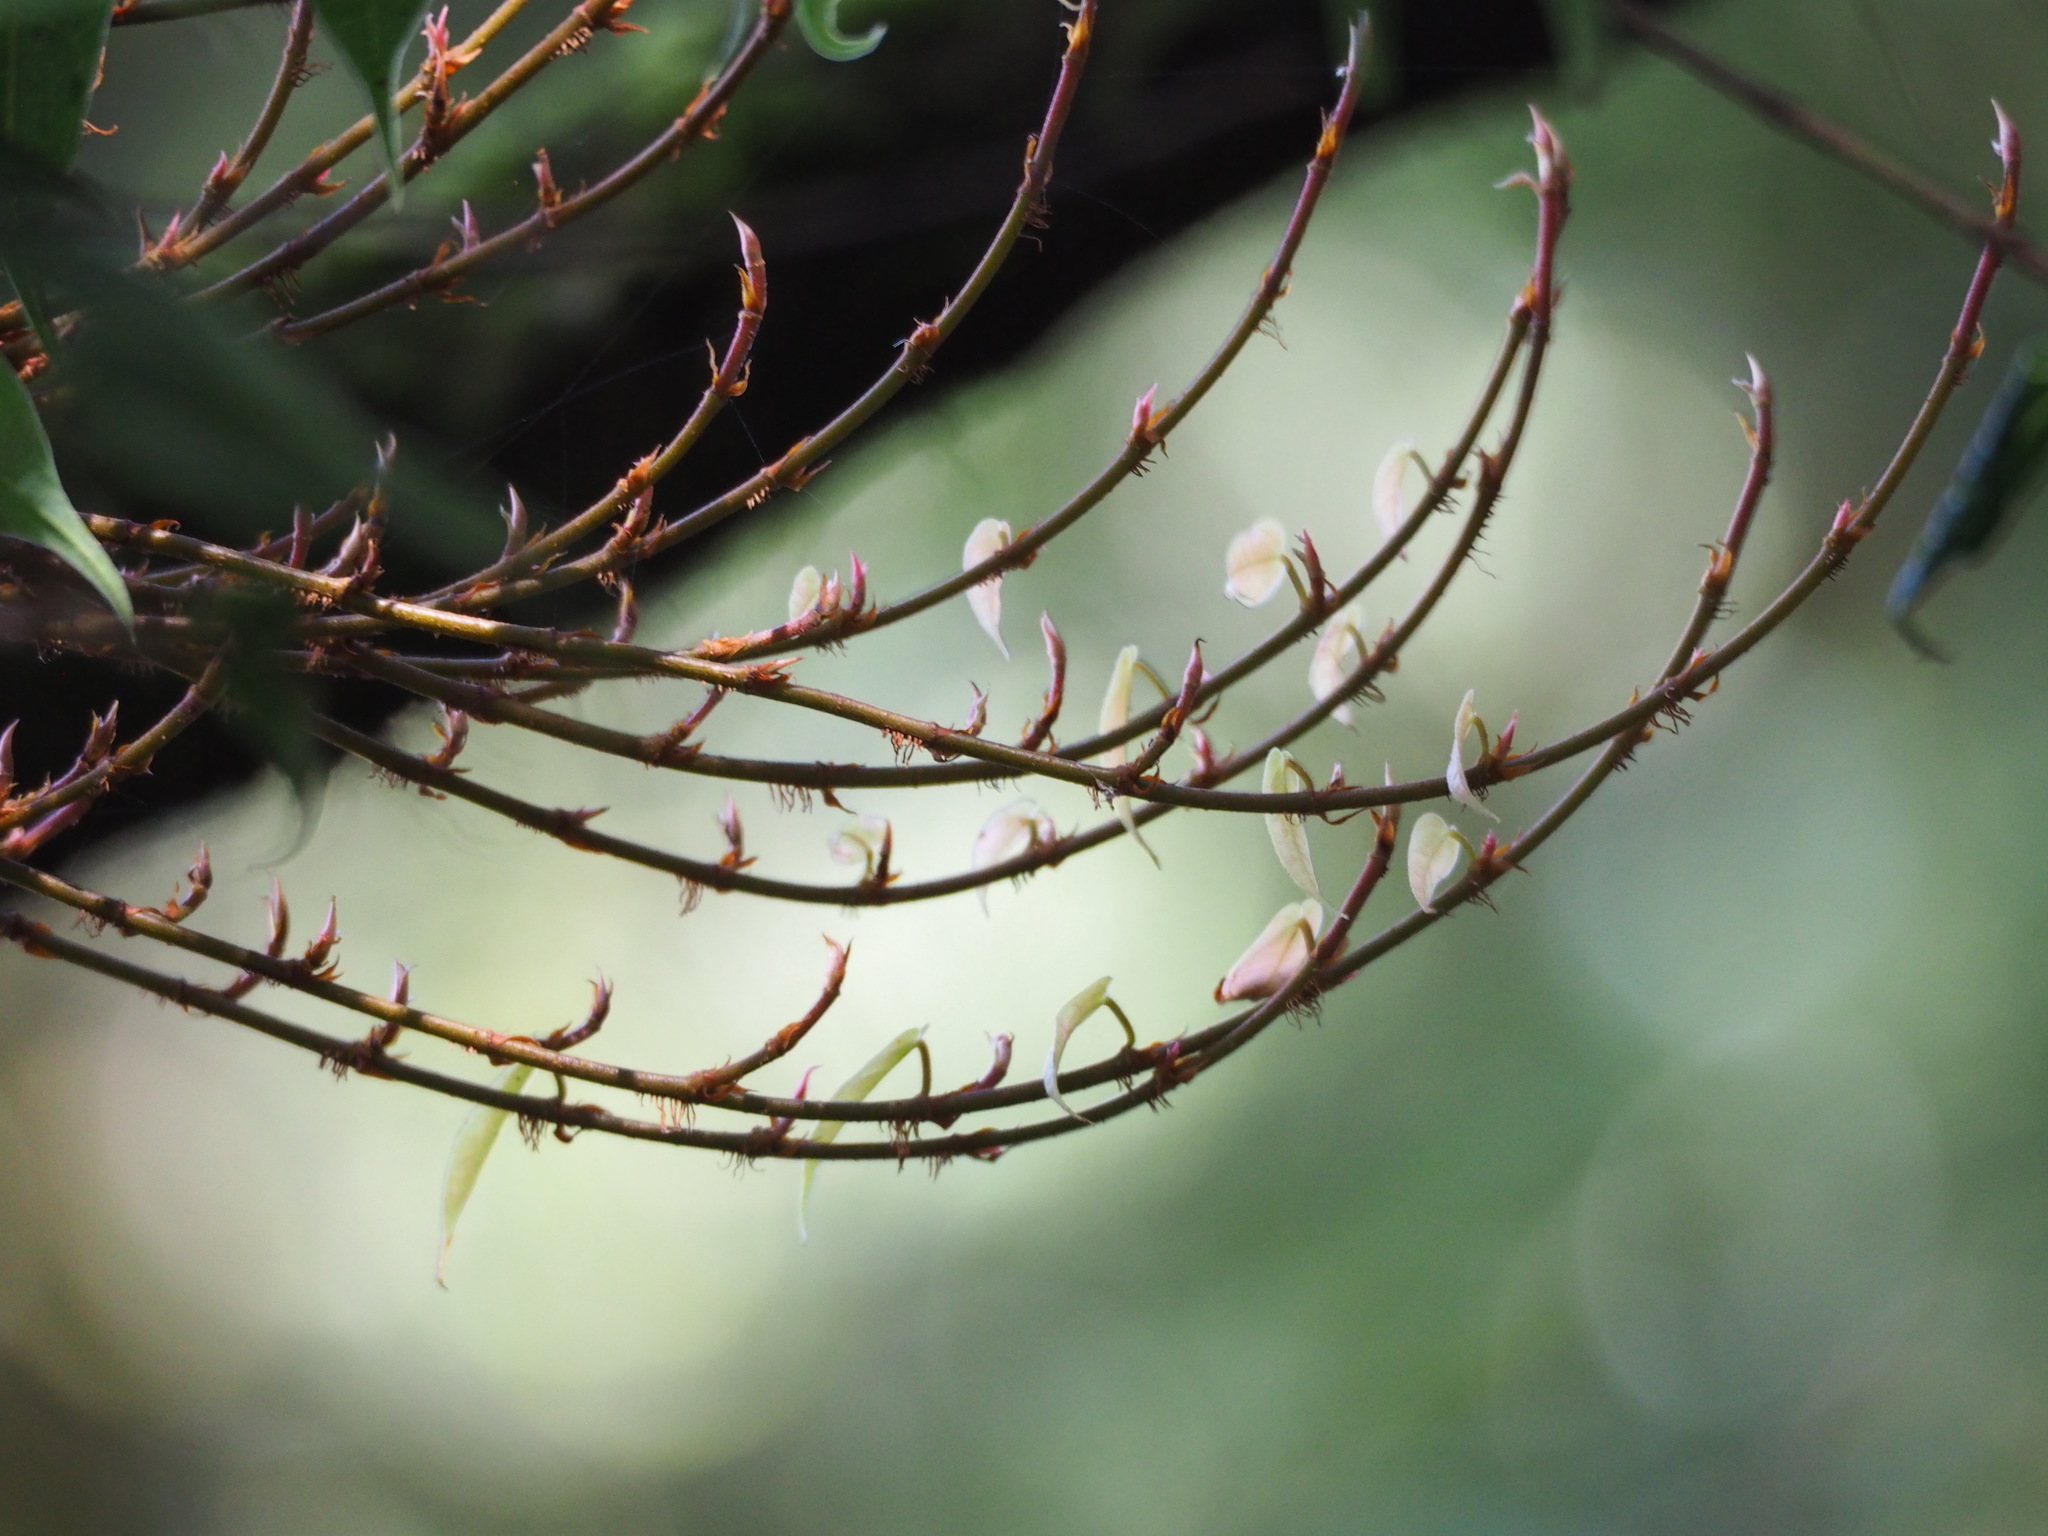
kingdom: Plantae
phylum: Tracheophyta
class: Magnoliopsida
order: Rosales
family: Moraceae
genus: Ficus
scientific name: Ficus sarmentosa
